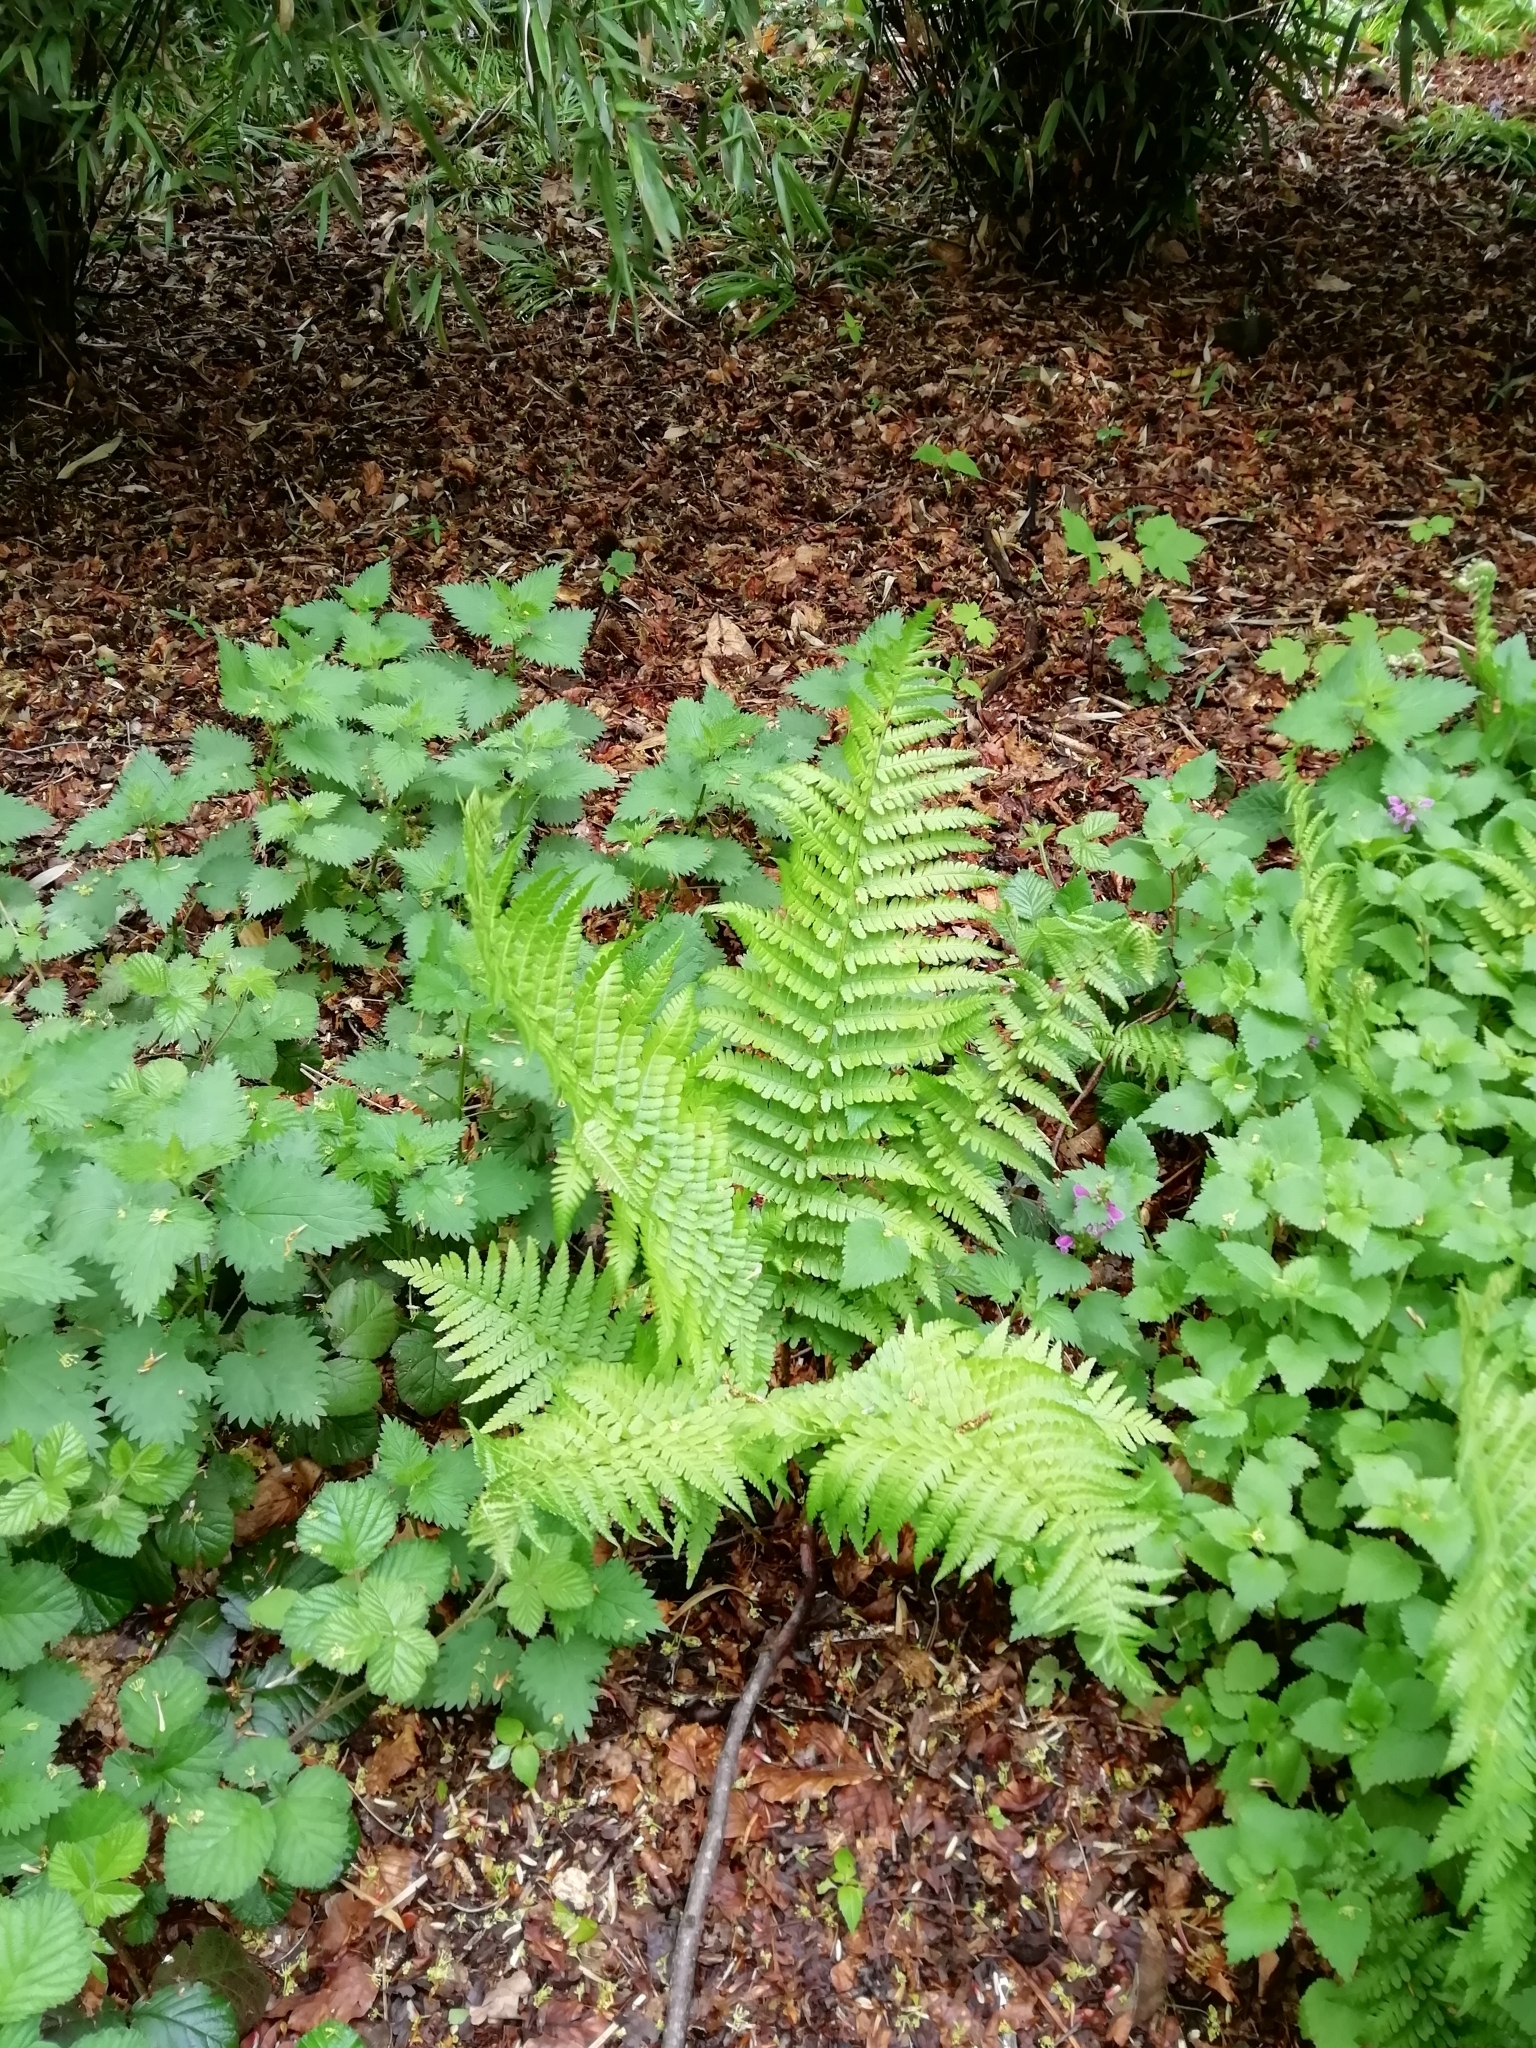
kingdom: Plantae
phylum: Tracheophyta
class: Polypodiopsida
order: Polypodiales
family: Dryopteridaceae
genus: Dryopteris
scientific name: Dryopteris filix-mas
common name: Male fern
